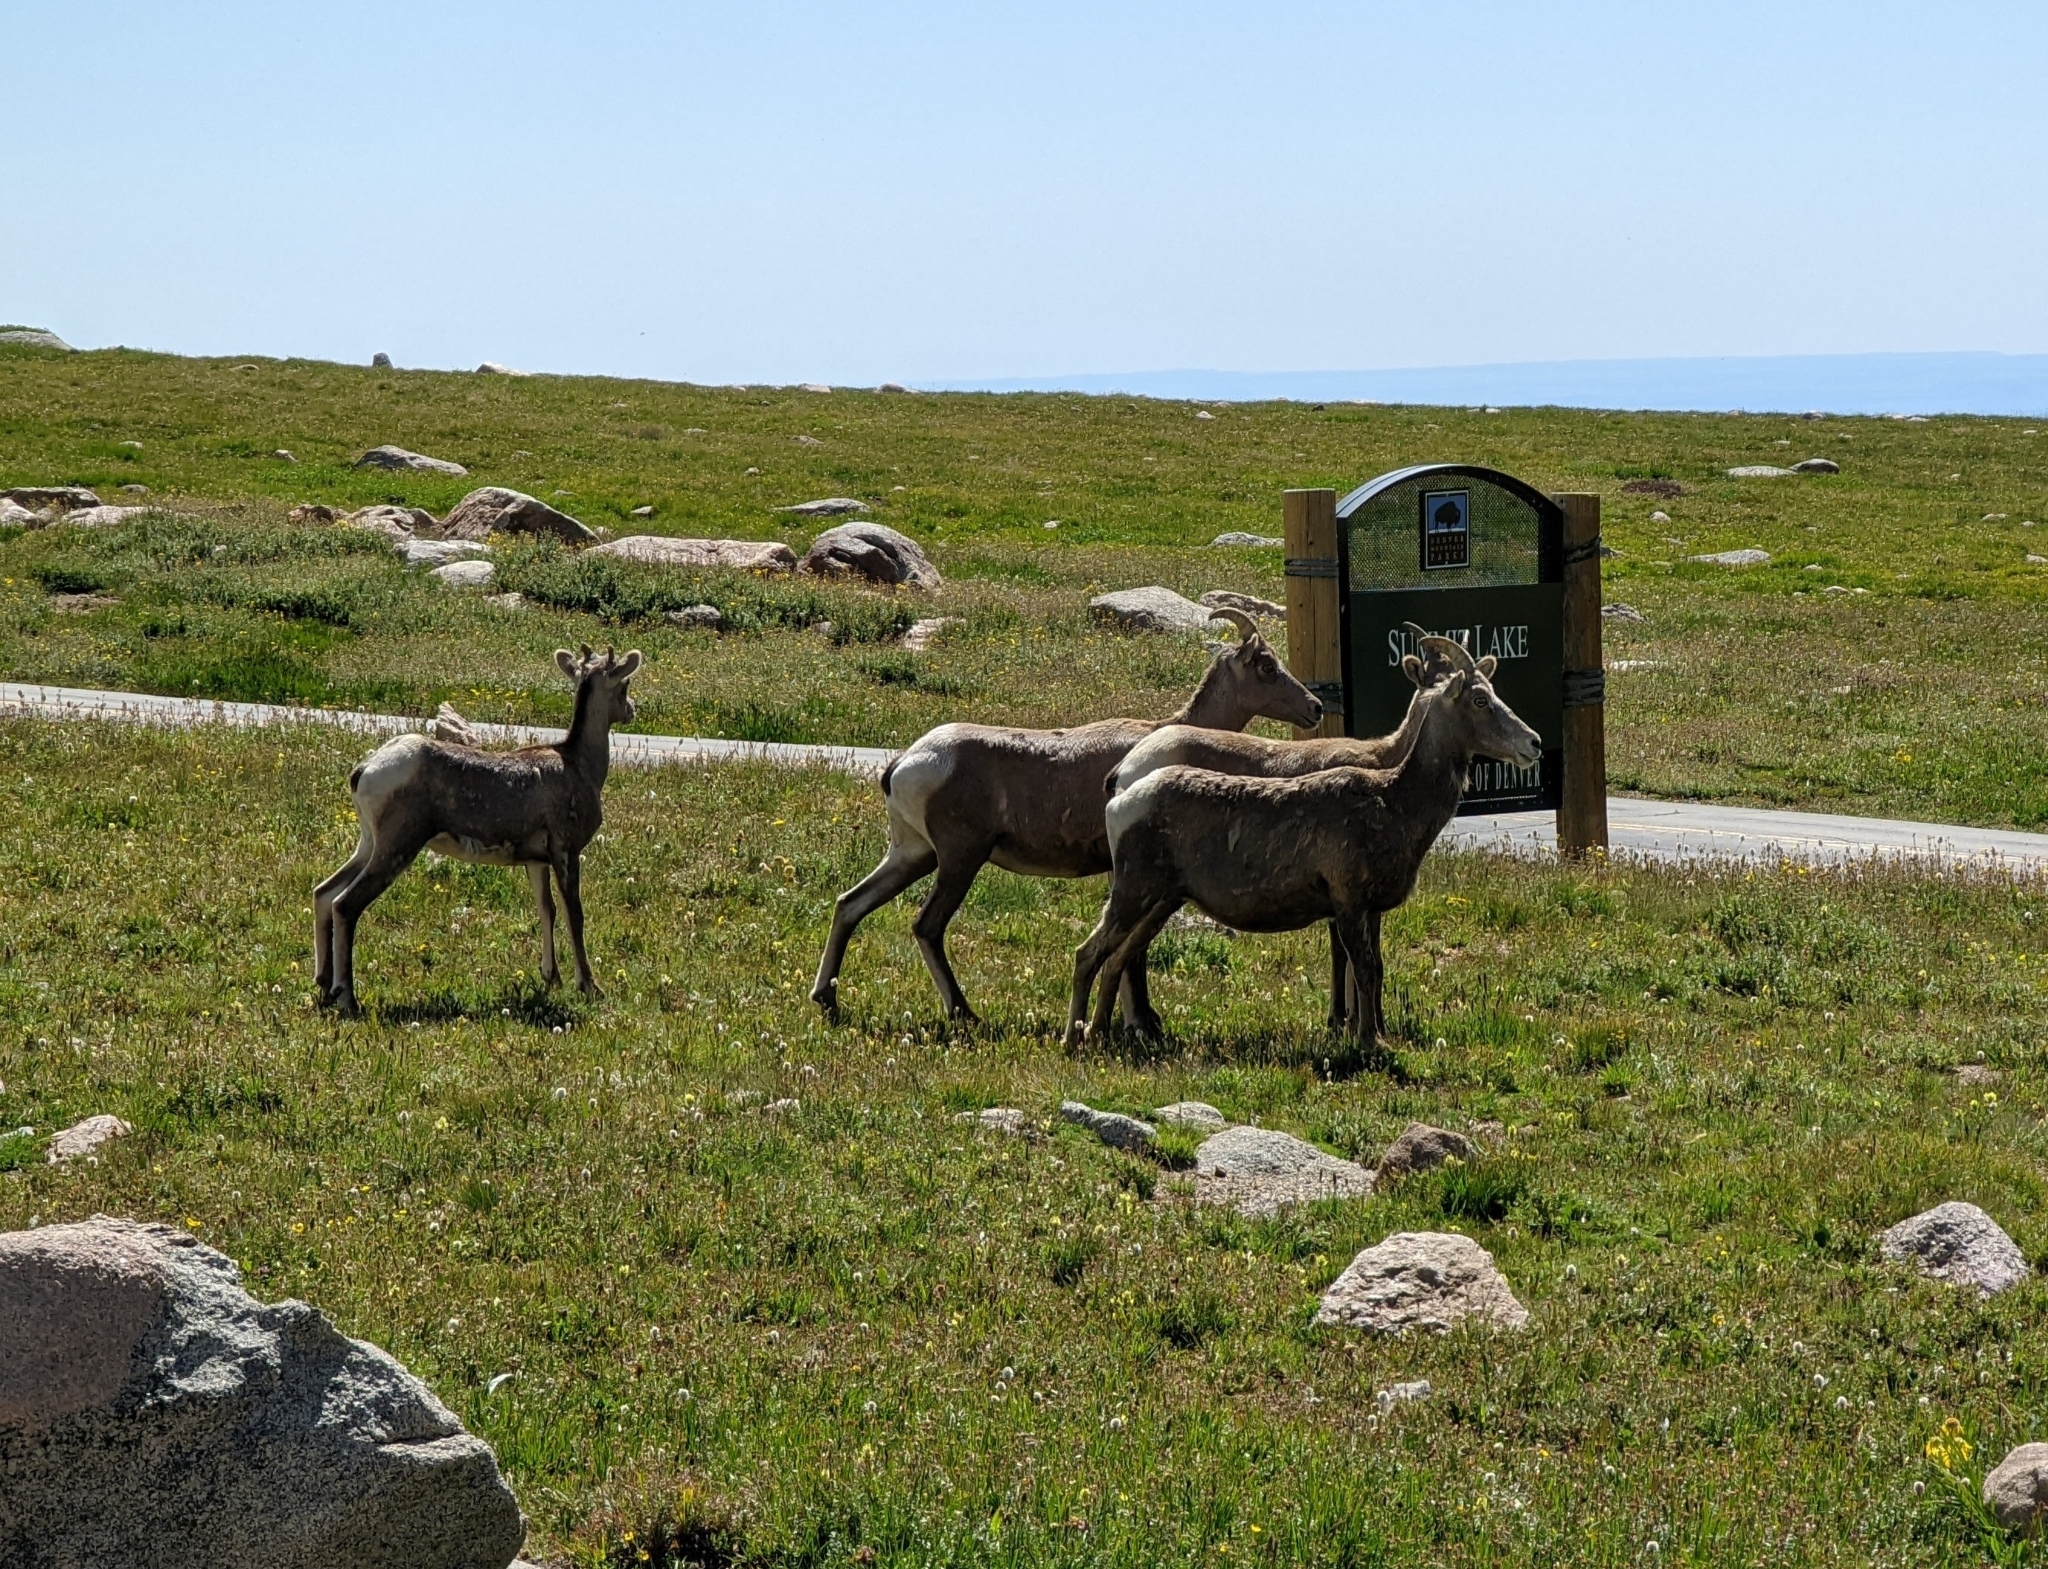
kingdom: Animalia
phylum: Chordata
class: Mammalia
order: Artiodactyla
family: Bovidae
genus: Ovis
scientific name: Ovis canadensis
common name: Bighorn sheep
